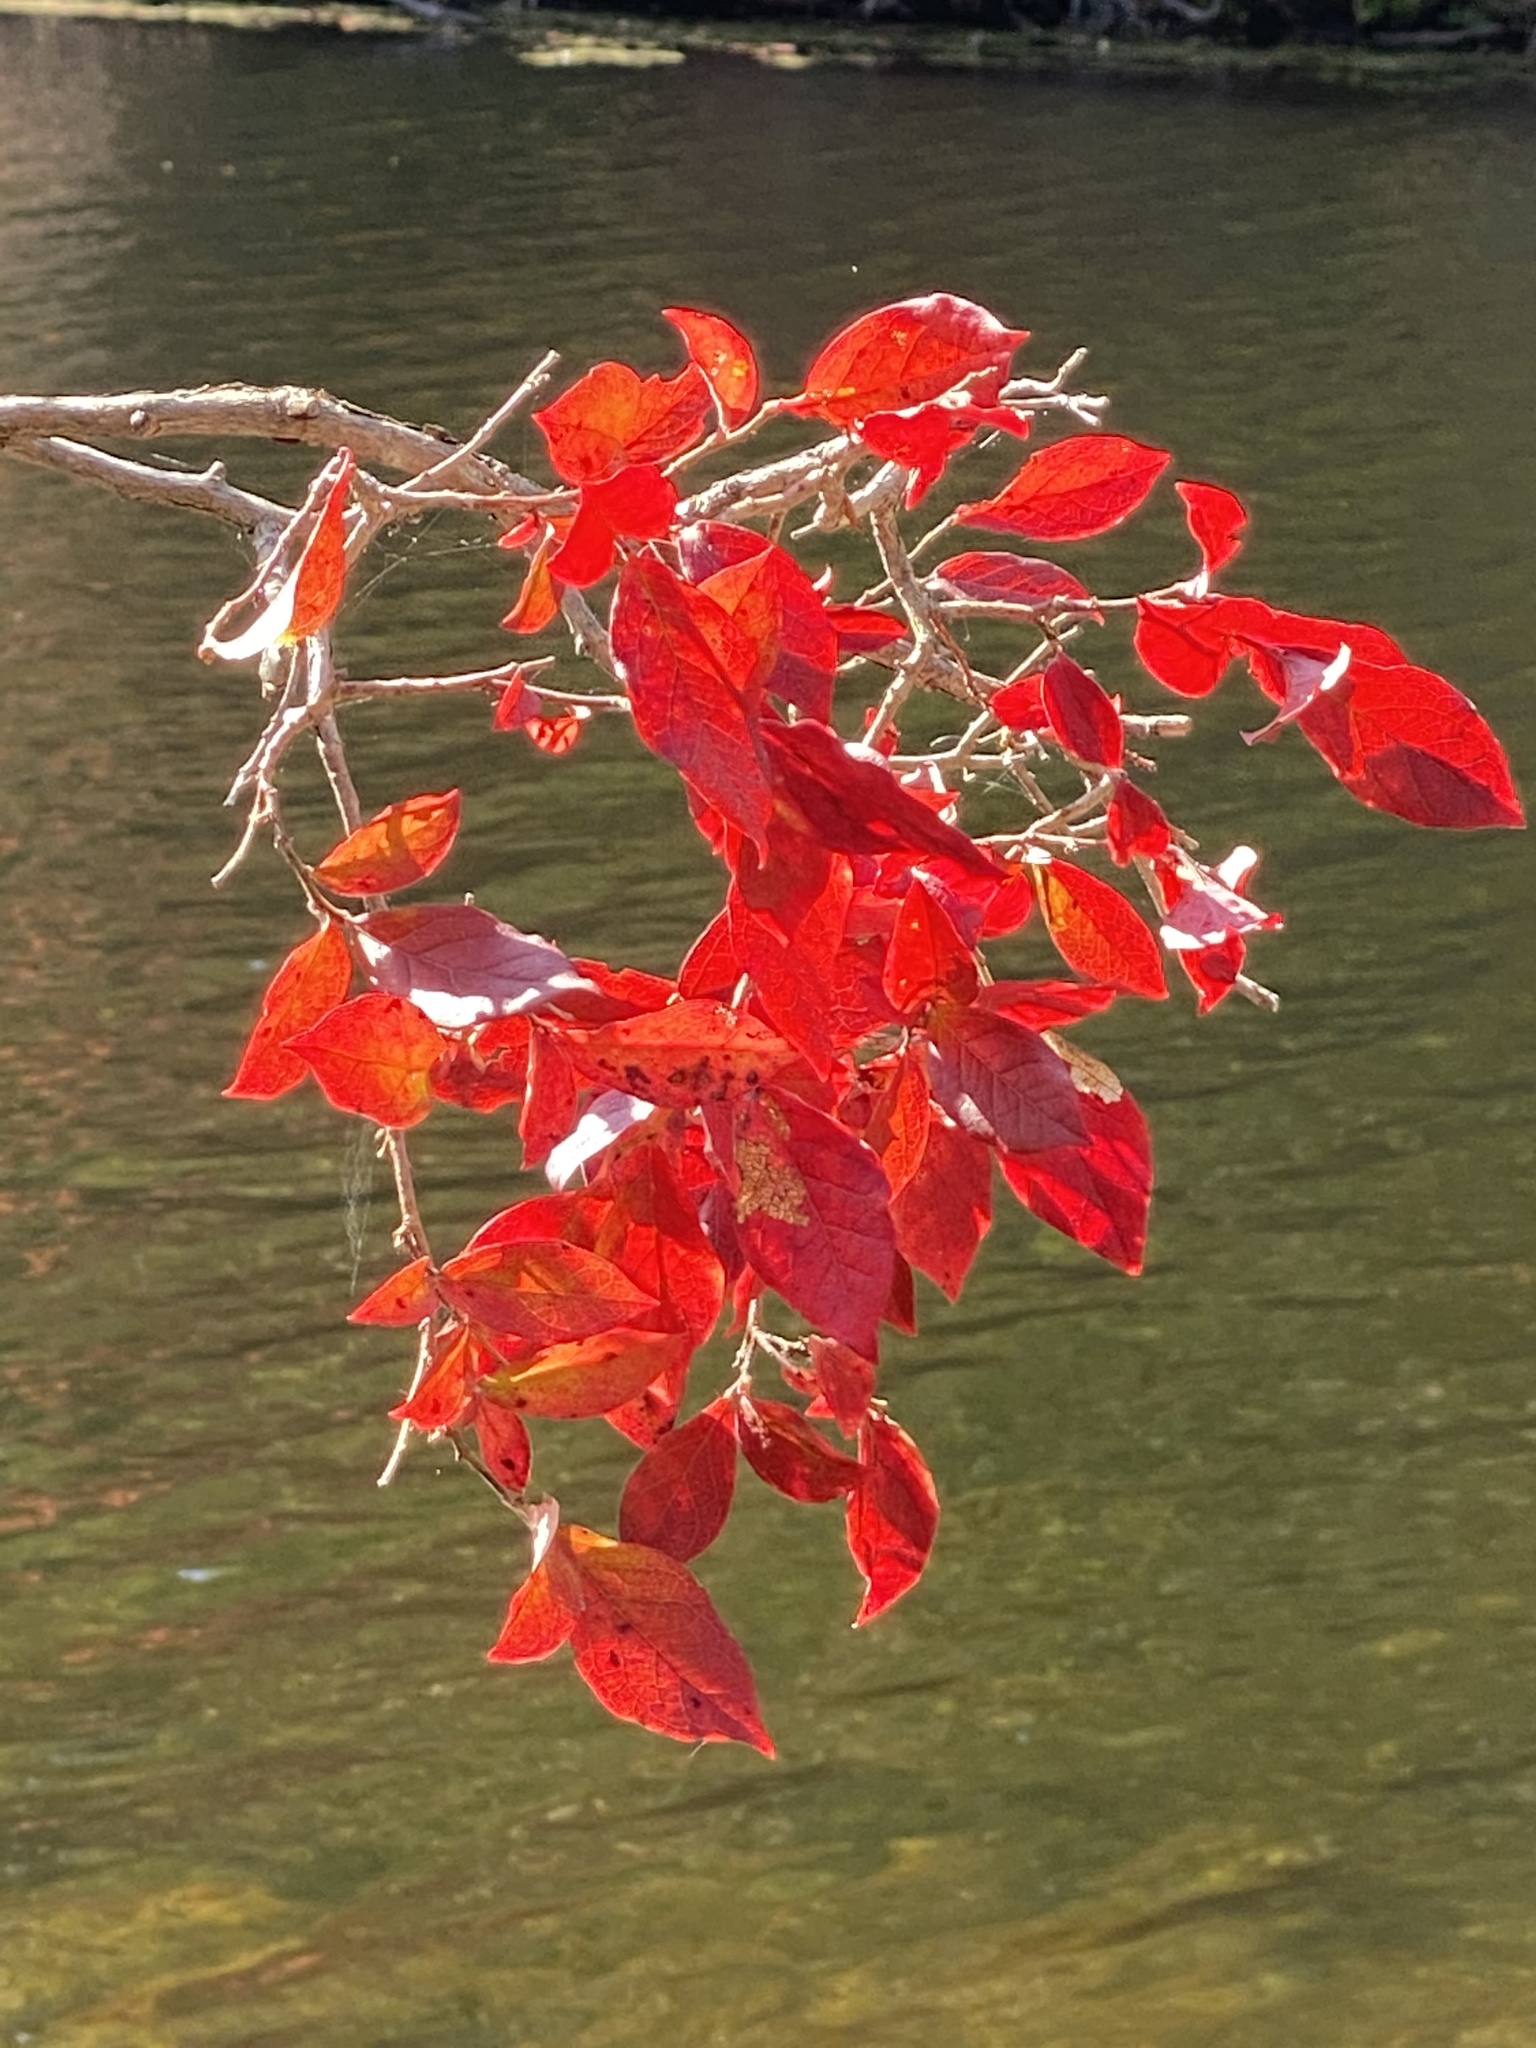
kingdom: Plantae
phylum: Tracheophyta
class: Magnoliopsida
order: Ericales
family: Ericaceae
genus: Vaccinium
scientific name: Vaccinium corymbosum
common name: Blueberry
